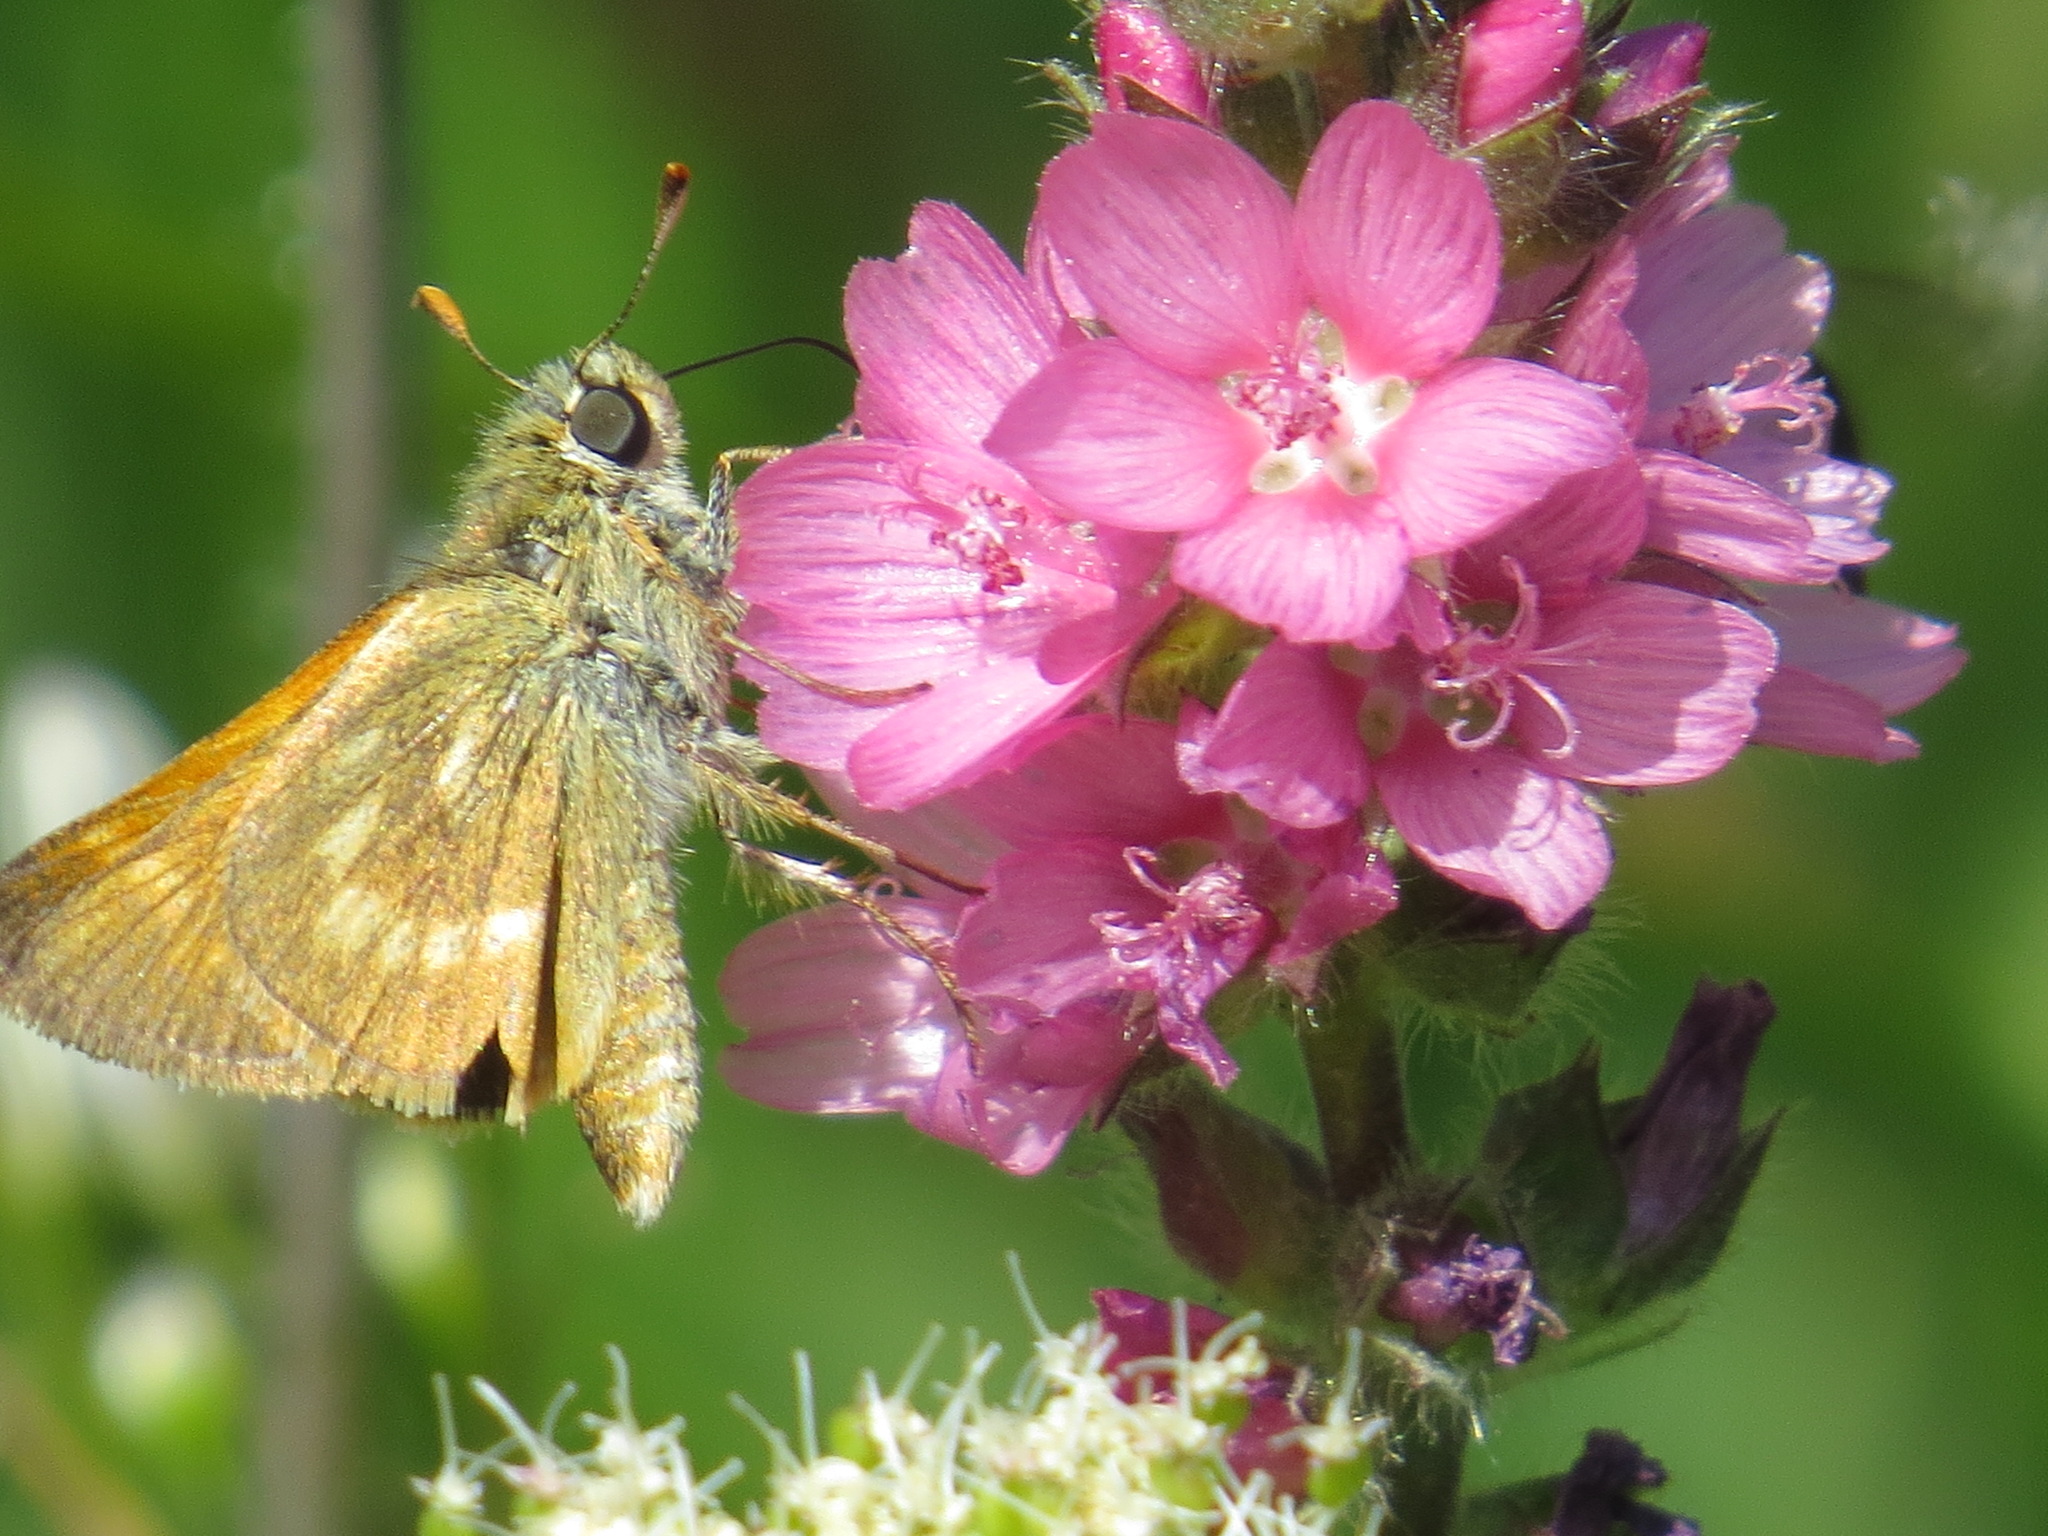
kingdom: Animalia
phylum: Arthropoda
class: Insecta
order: Lepidoptera
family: Hesperiidae
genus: Polites
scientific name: Polites mystic
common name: Long dash
